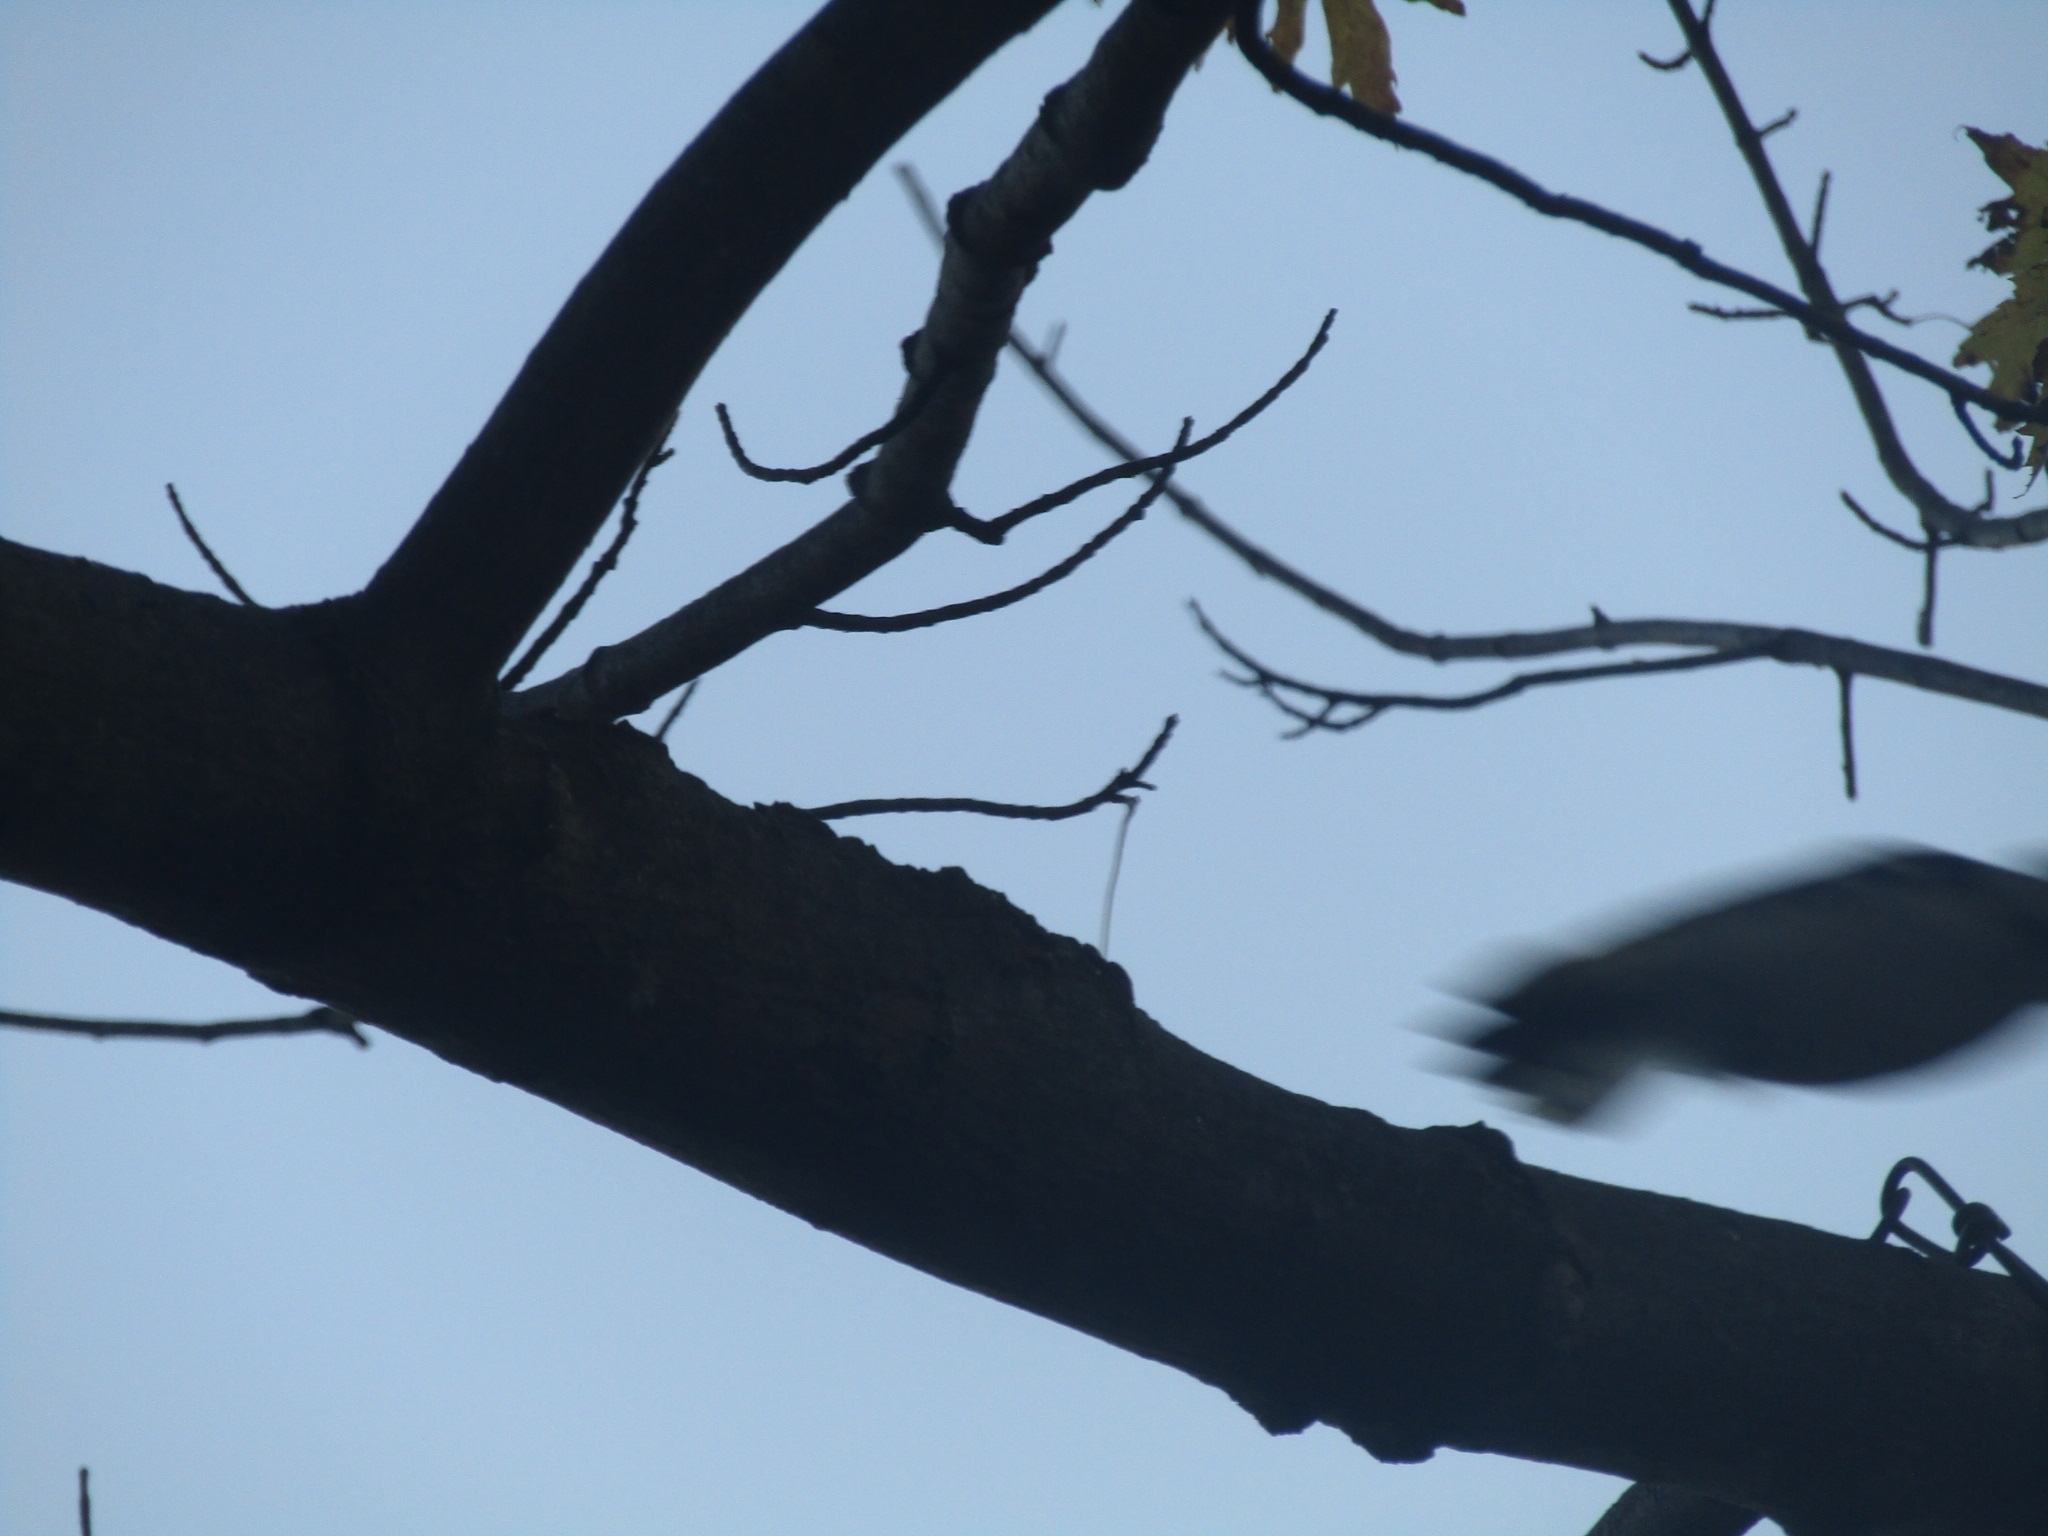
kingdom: Animalia
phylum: Chordata
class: Aves
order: Piciformes
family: Picidae
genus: Dryobates
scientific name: Dryobates pubescens
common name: Downy woodpecker
